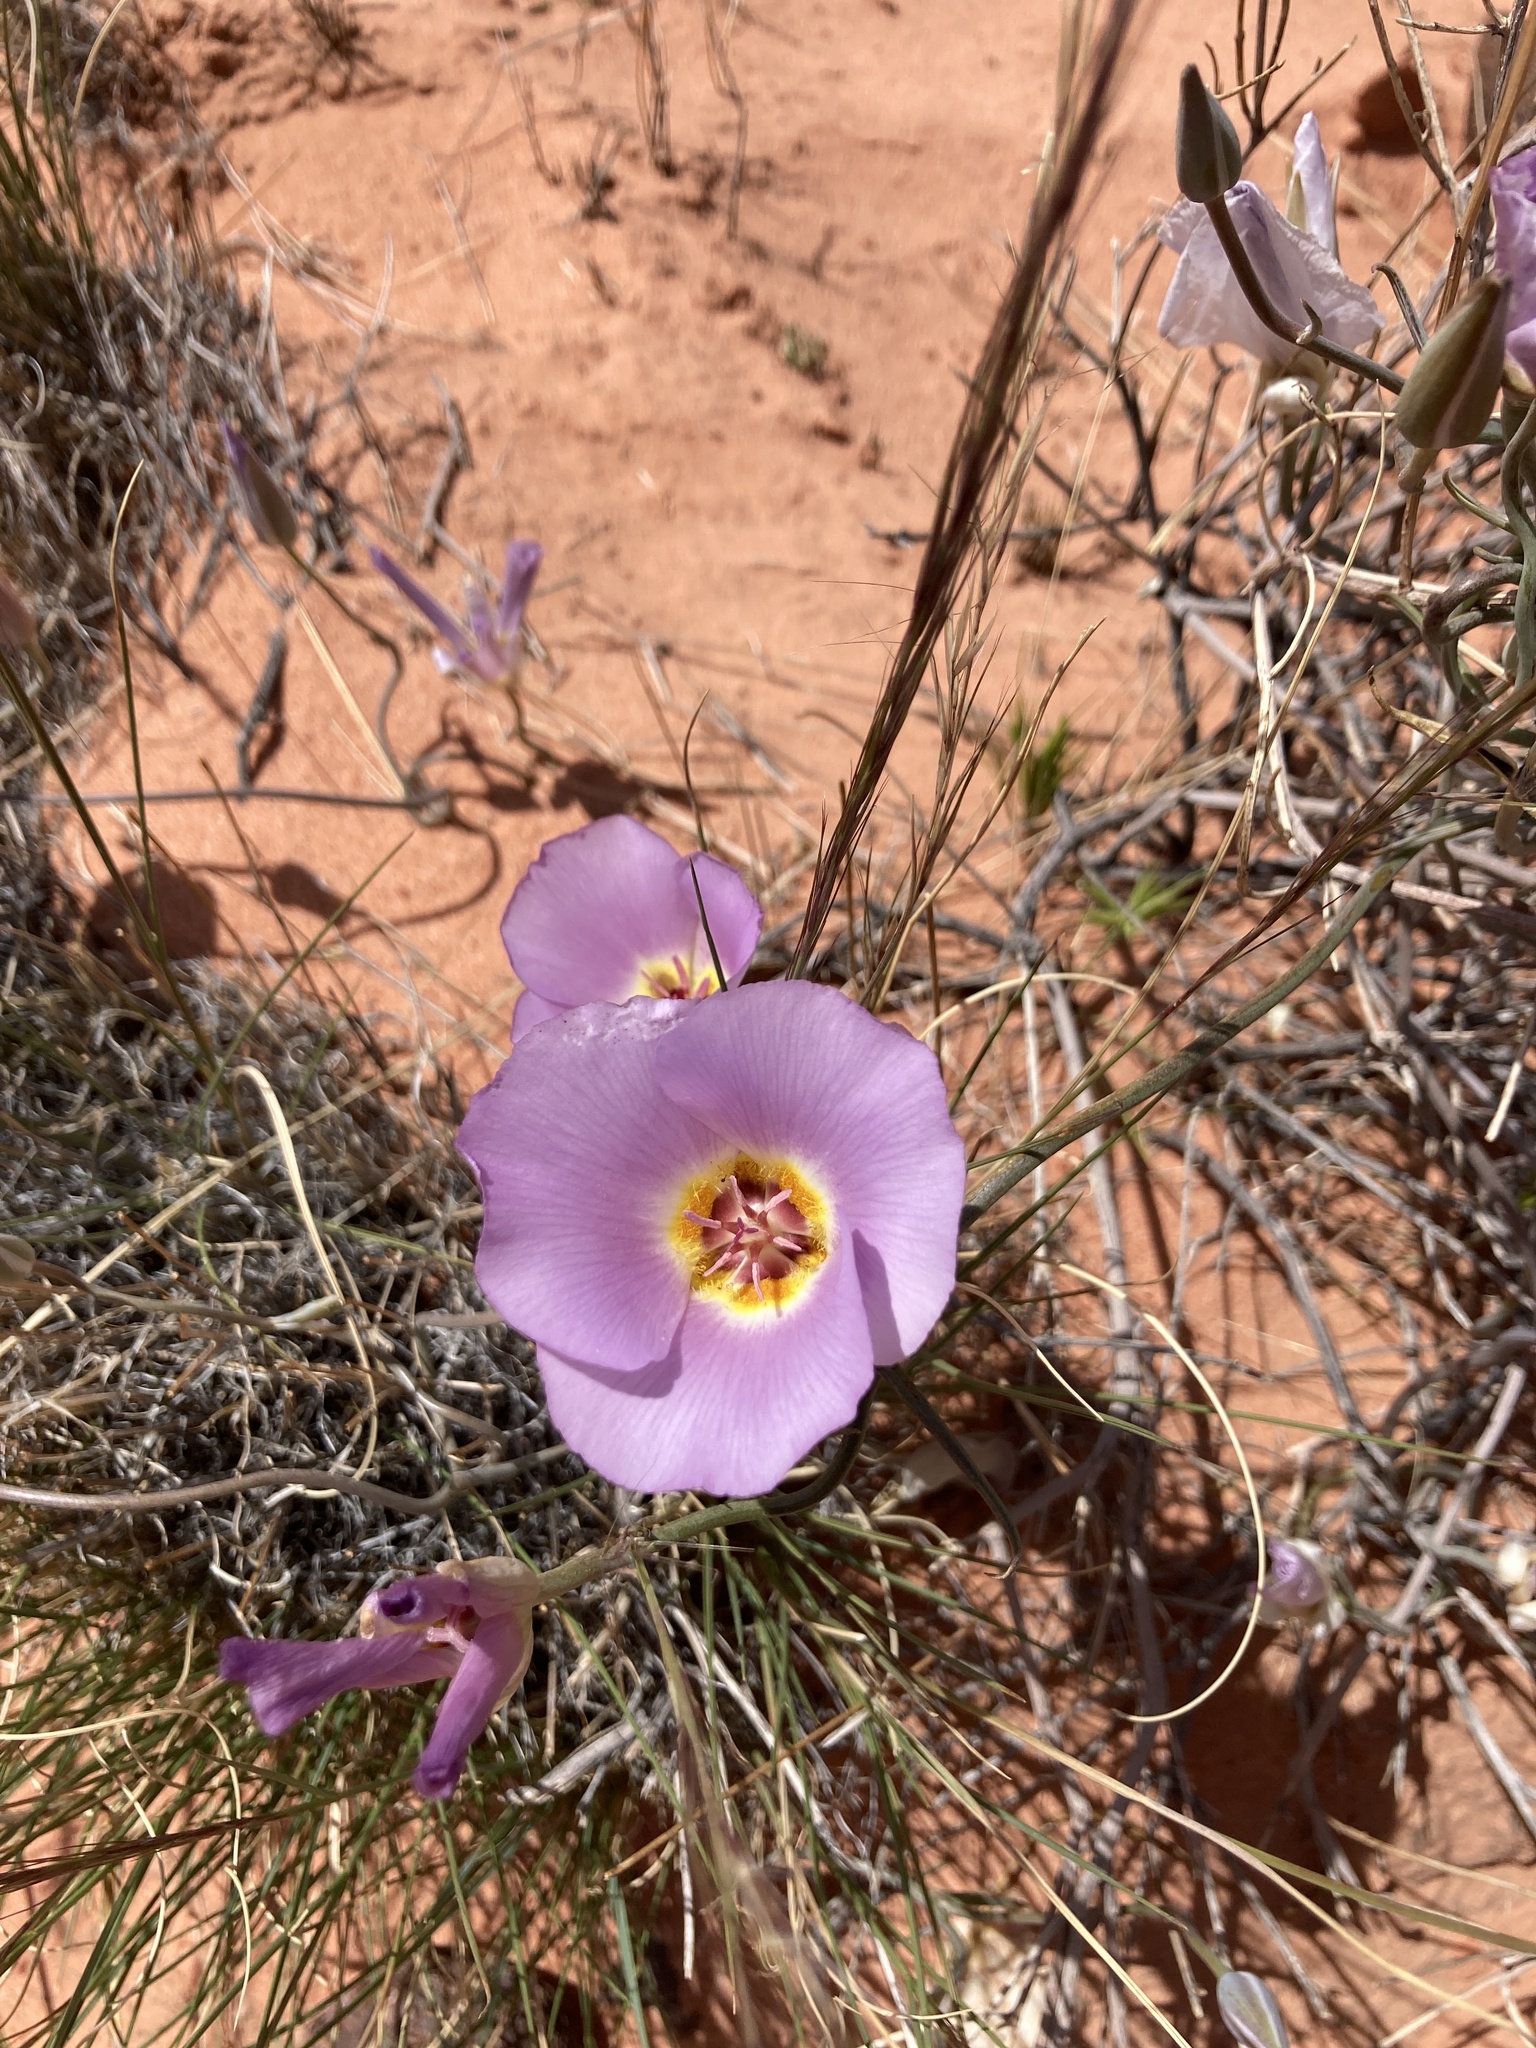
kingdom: Plantae
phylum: Tracheophyta
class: Liliopsida
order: Liliales
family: Liliaceae
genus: Calochortus
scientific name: Calochortus flexuosus
